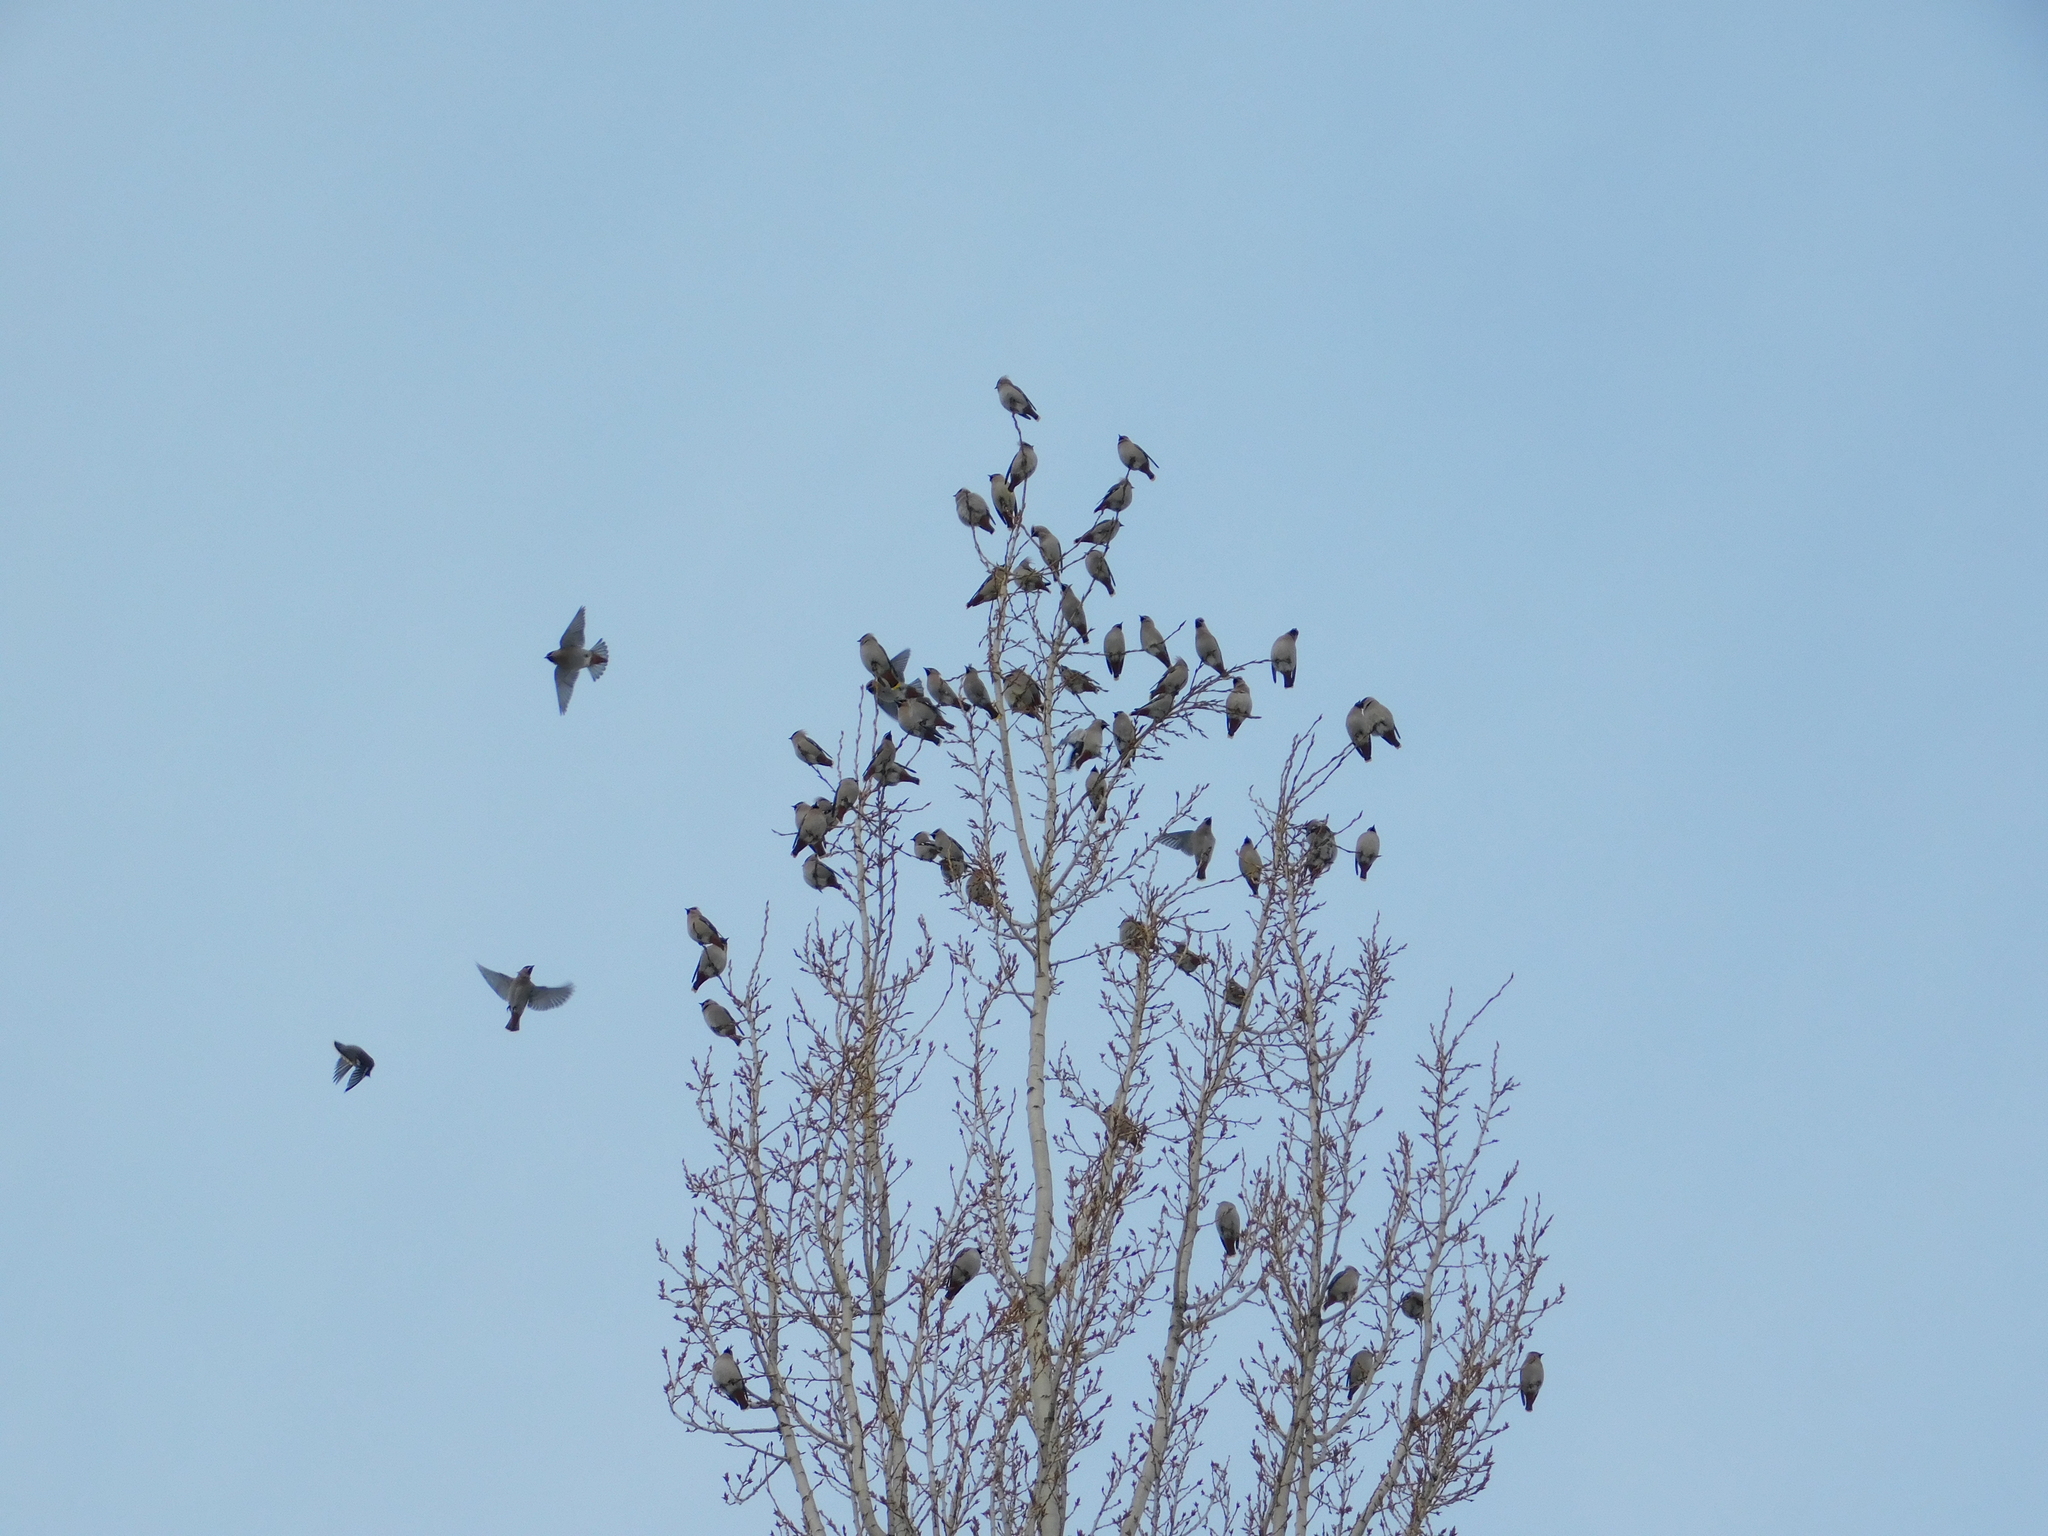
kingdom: Animalia
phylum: Chordata
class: Aves
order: Passeriformes
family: Bombycillidae
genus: Bombycilla
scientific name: Bombycilla garrulus
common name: Bohemian waxwing
